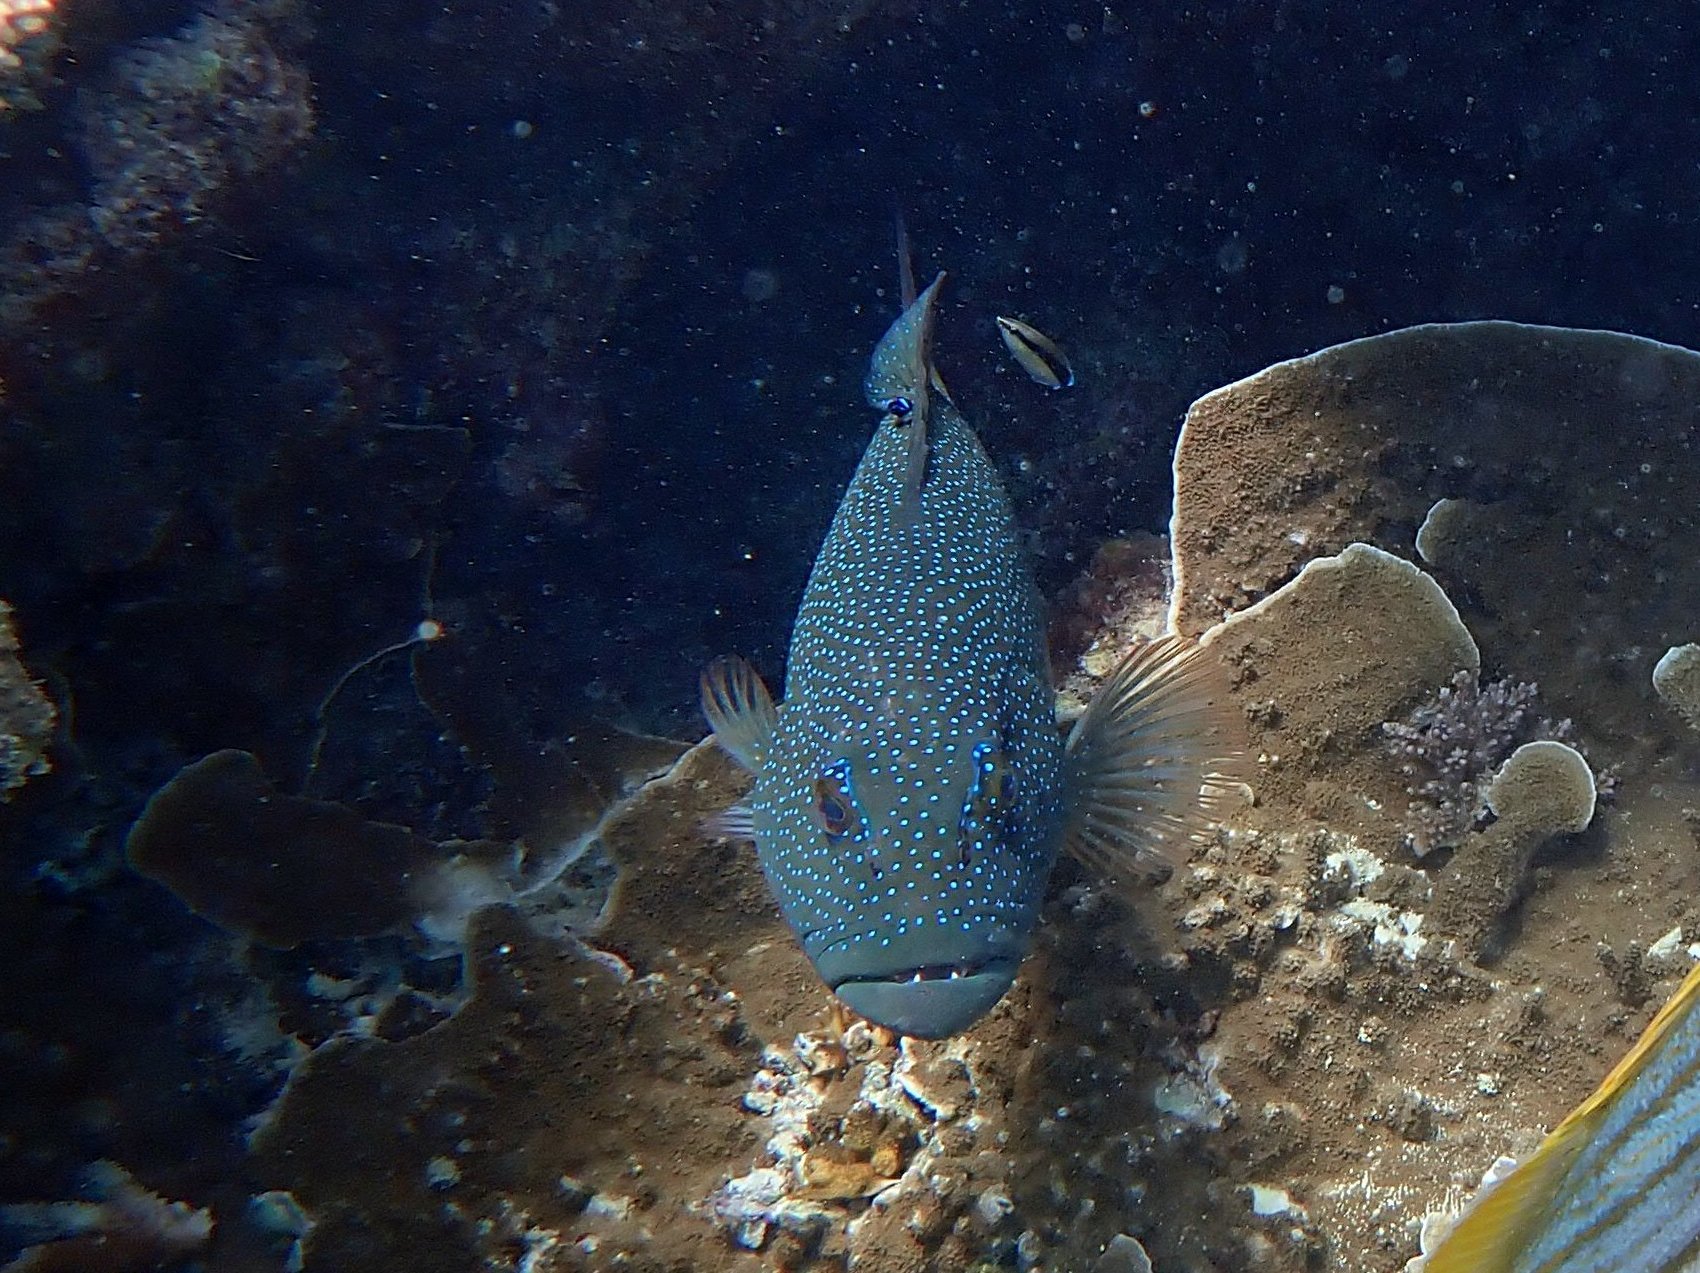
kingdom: Animalia
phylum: Chordata
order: Perciformes
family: Serranidae
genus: Plectropomus
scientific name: Plectropomus leopardus
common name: Coral trout
